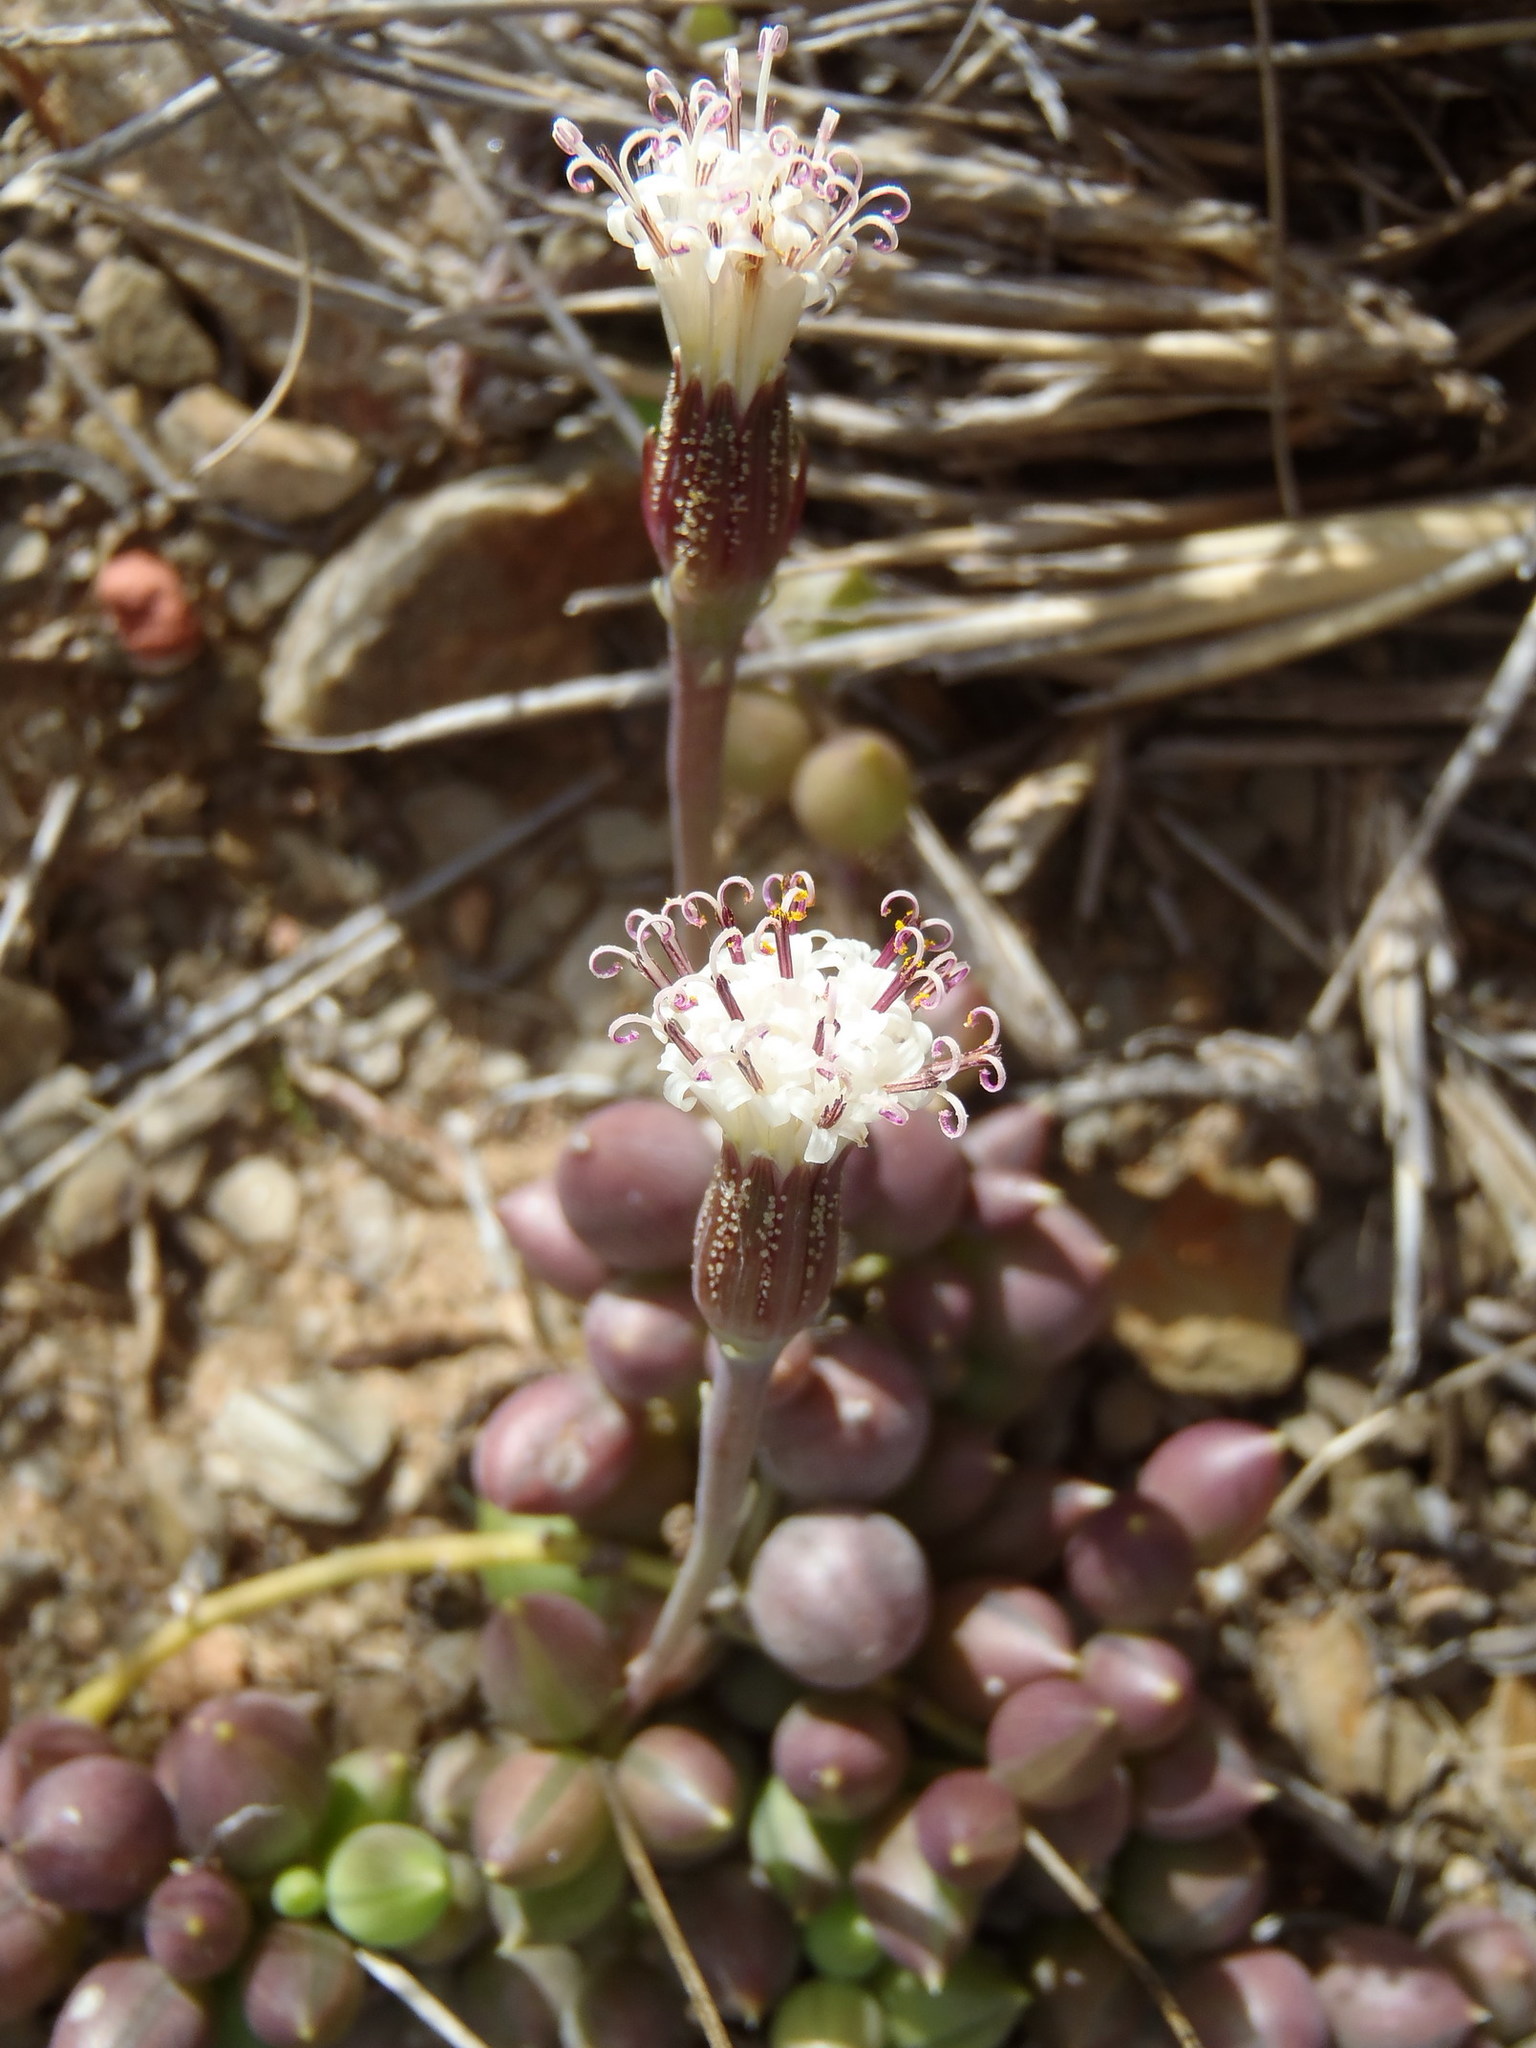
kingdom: Plantae
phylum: Tracheophyta
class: Magnoliopsida
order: Asterales
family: Asteraceae
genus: Curio
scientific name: Curio radicans
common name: Creeping-berry
